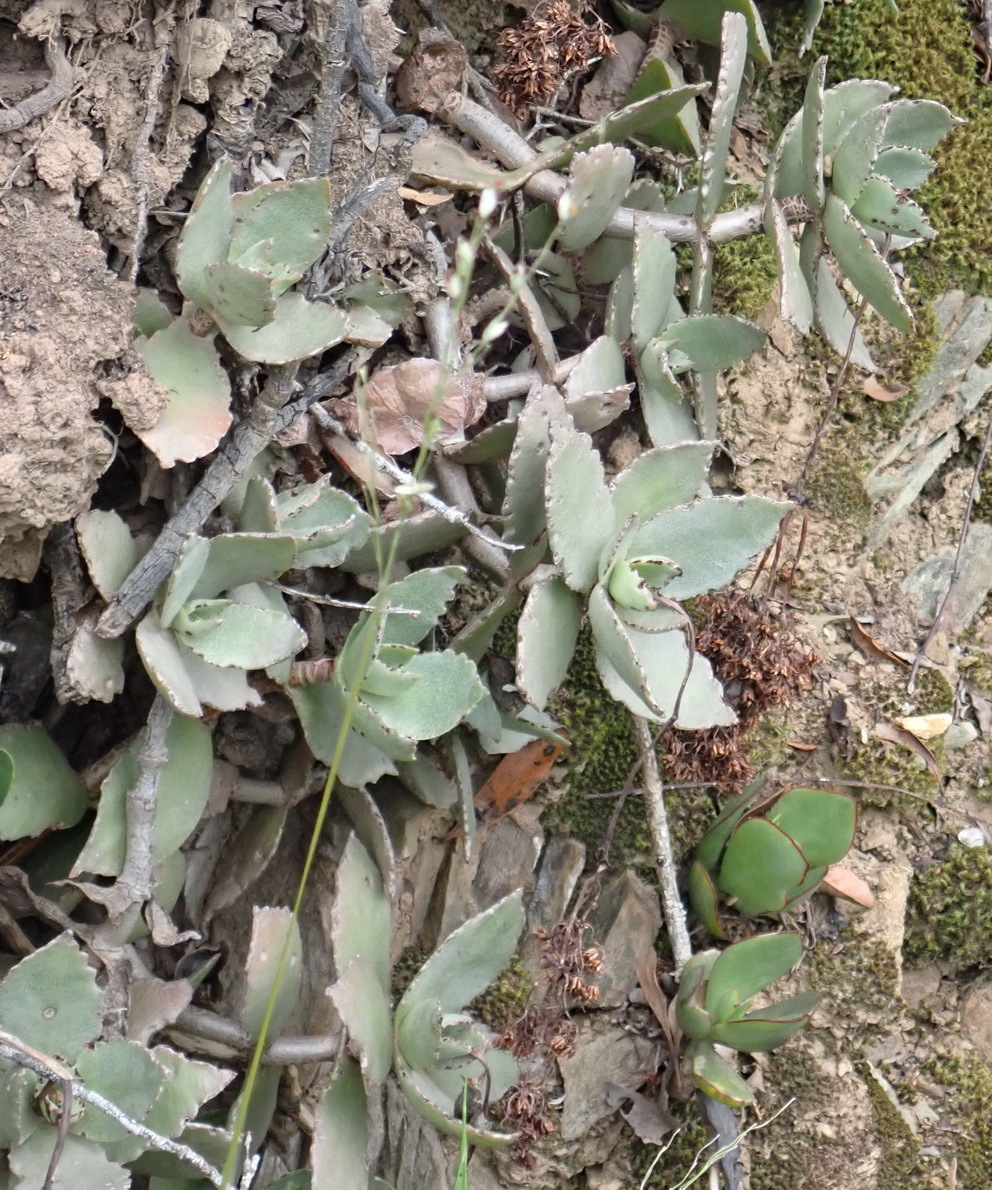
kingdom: Plantae
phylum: Tracheophyta
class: Magnoliopsida
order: Saxifragales
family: Crassulaceae
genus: Crassula
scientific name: Crassula lactea
